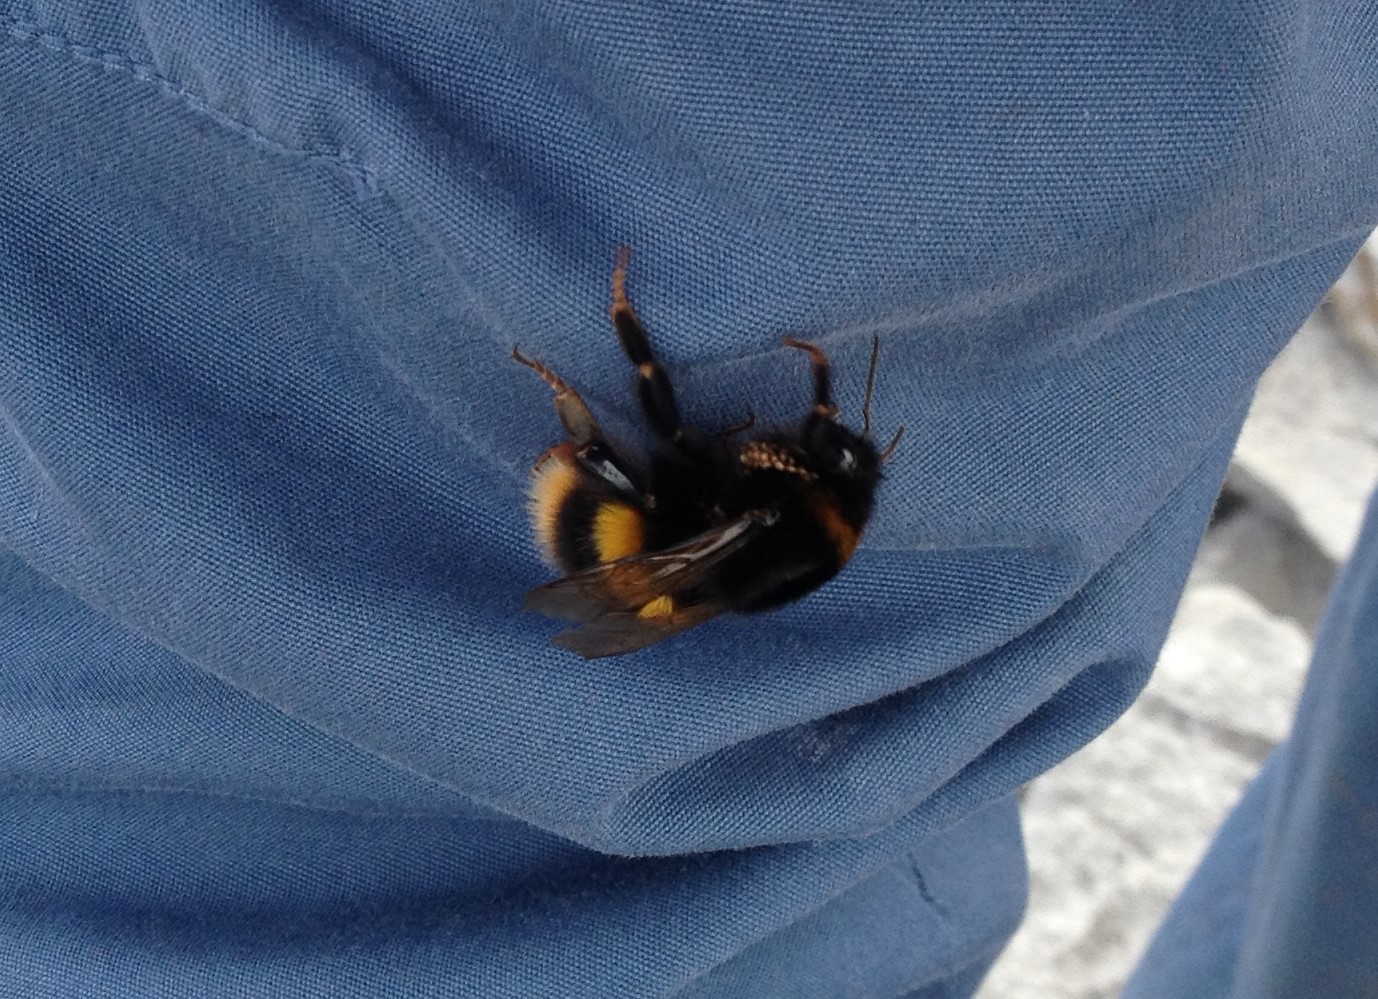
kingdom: Animalia
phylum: Arthropoda
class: Insecta
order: Hymenoptera
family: Apidae
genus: Bombus
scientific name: Bombus terrestris
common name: Buff-tailed bumblebee
